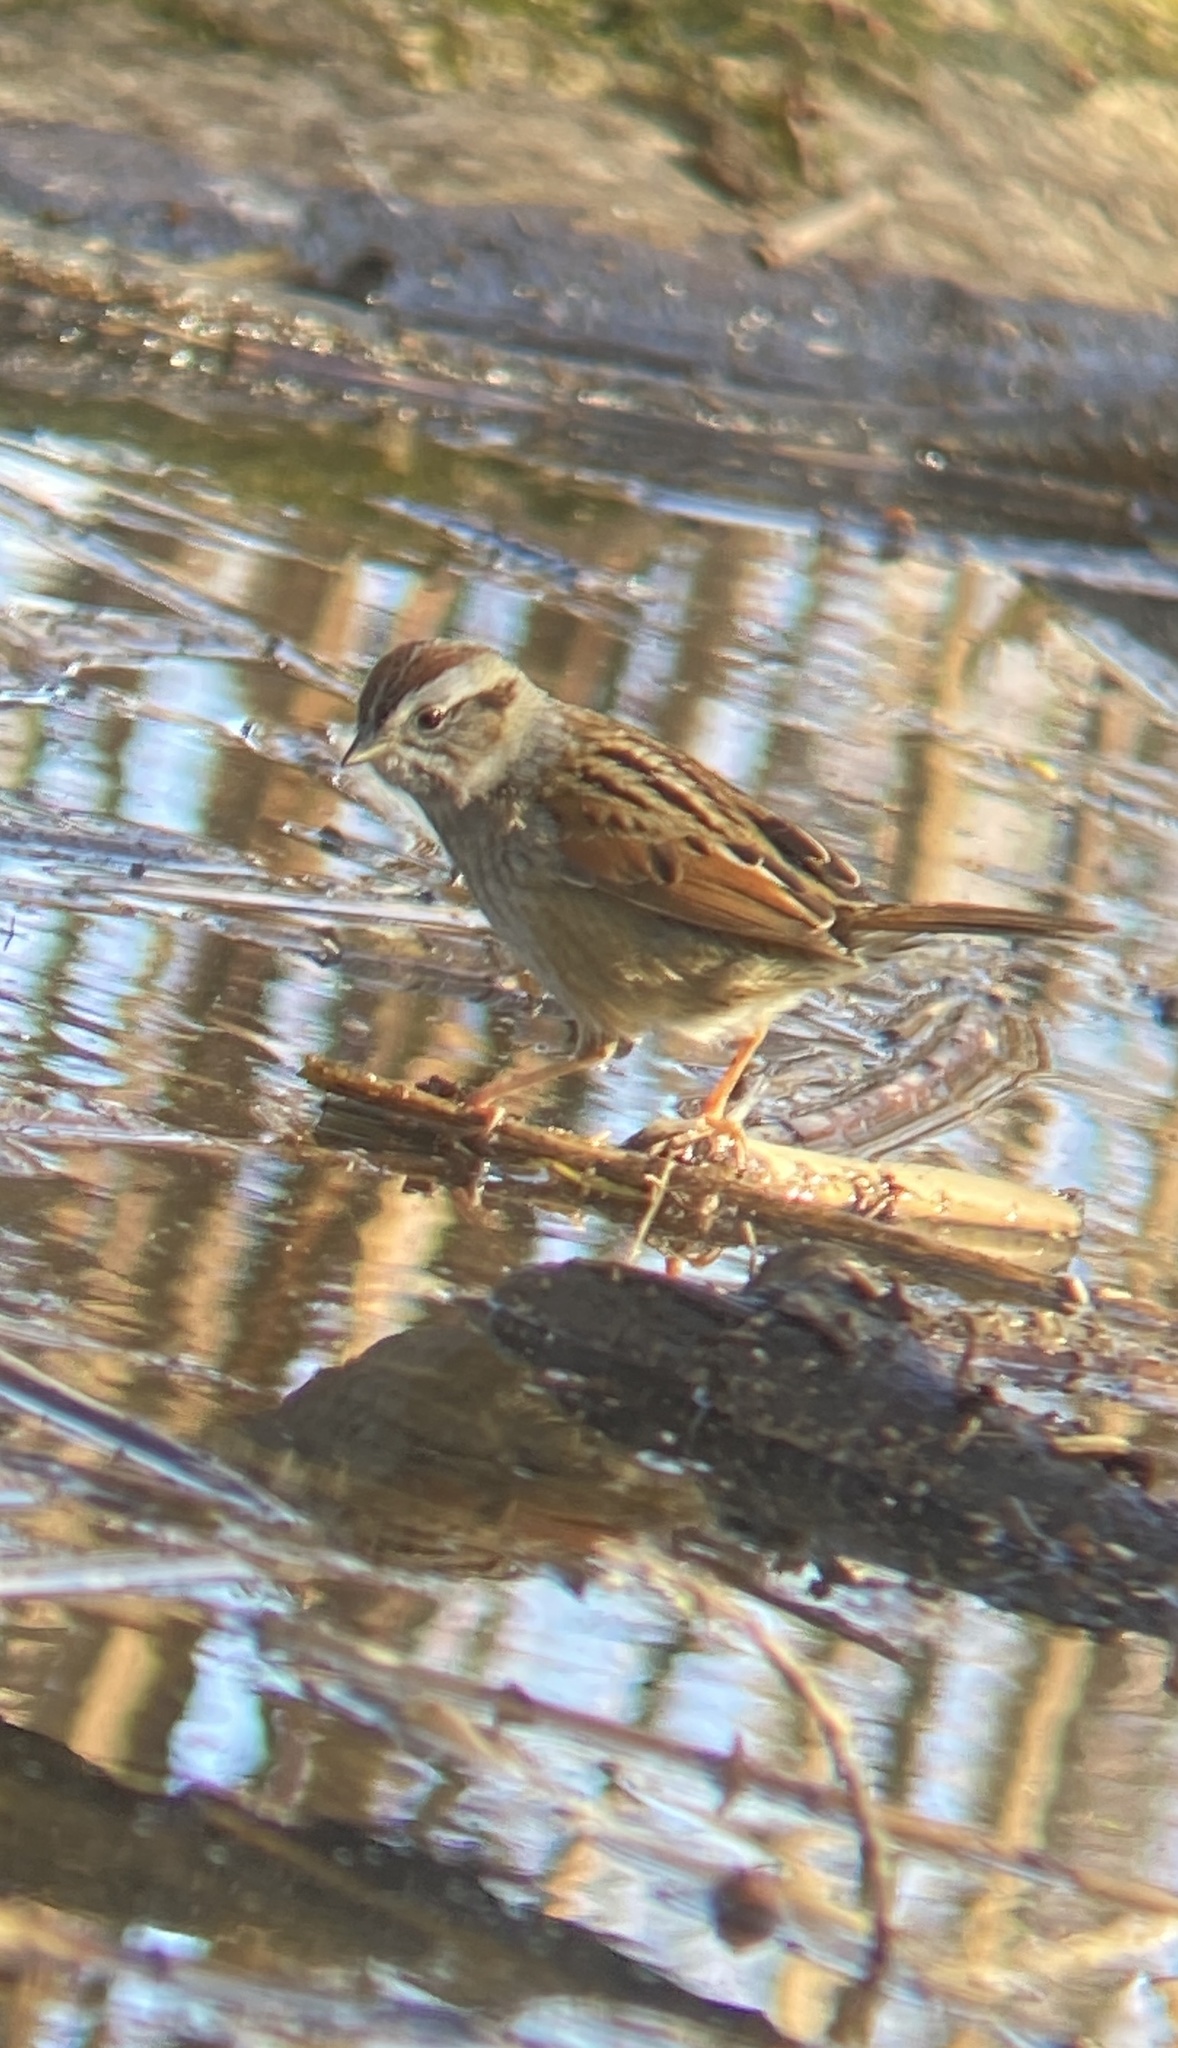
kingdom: Animalia
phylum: Chordata
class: Aves
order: Passeriformes
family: Passerellidae
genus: Melospiza
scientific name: Melospiza georgiana
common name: Swamp sparrow
